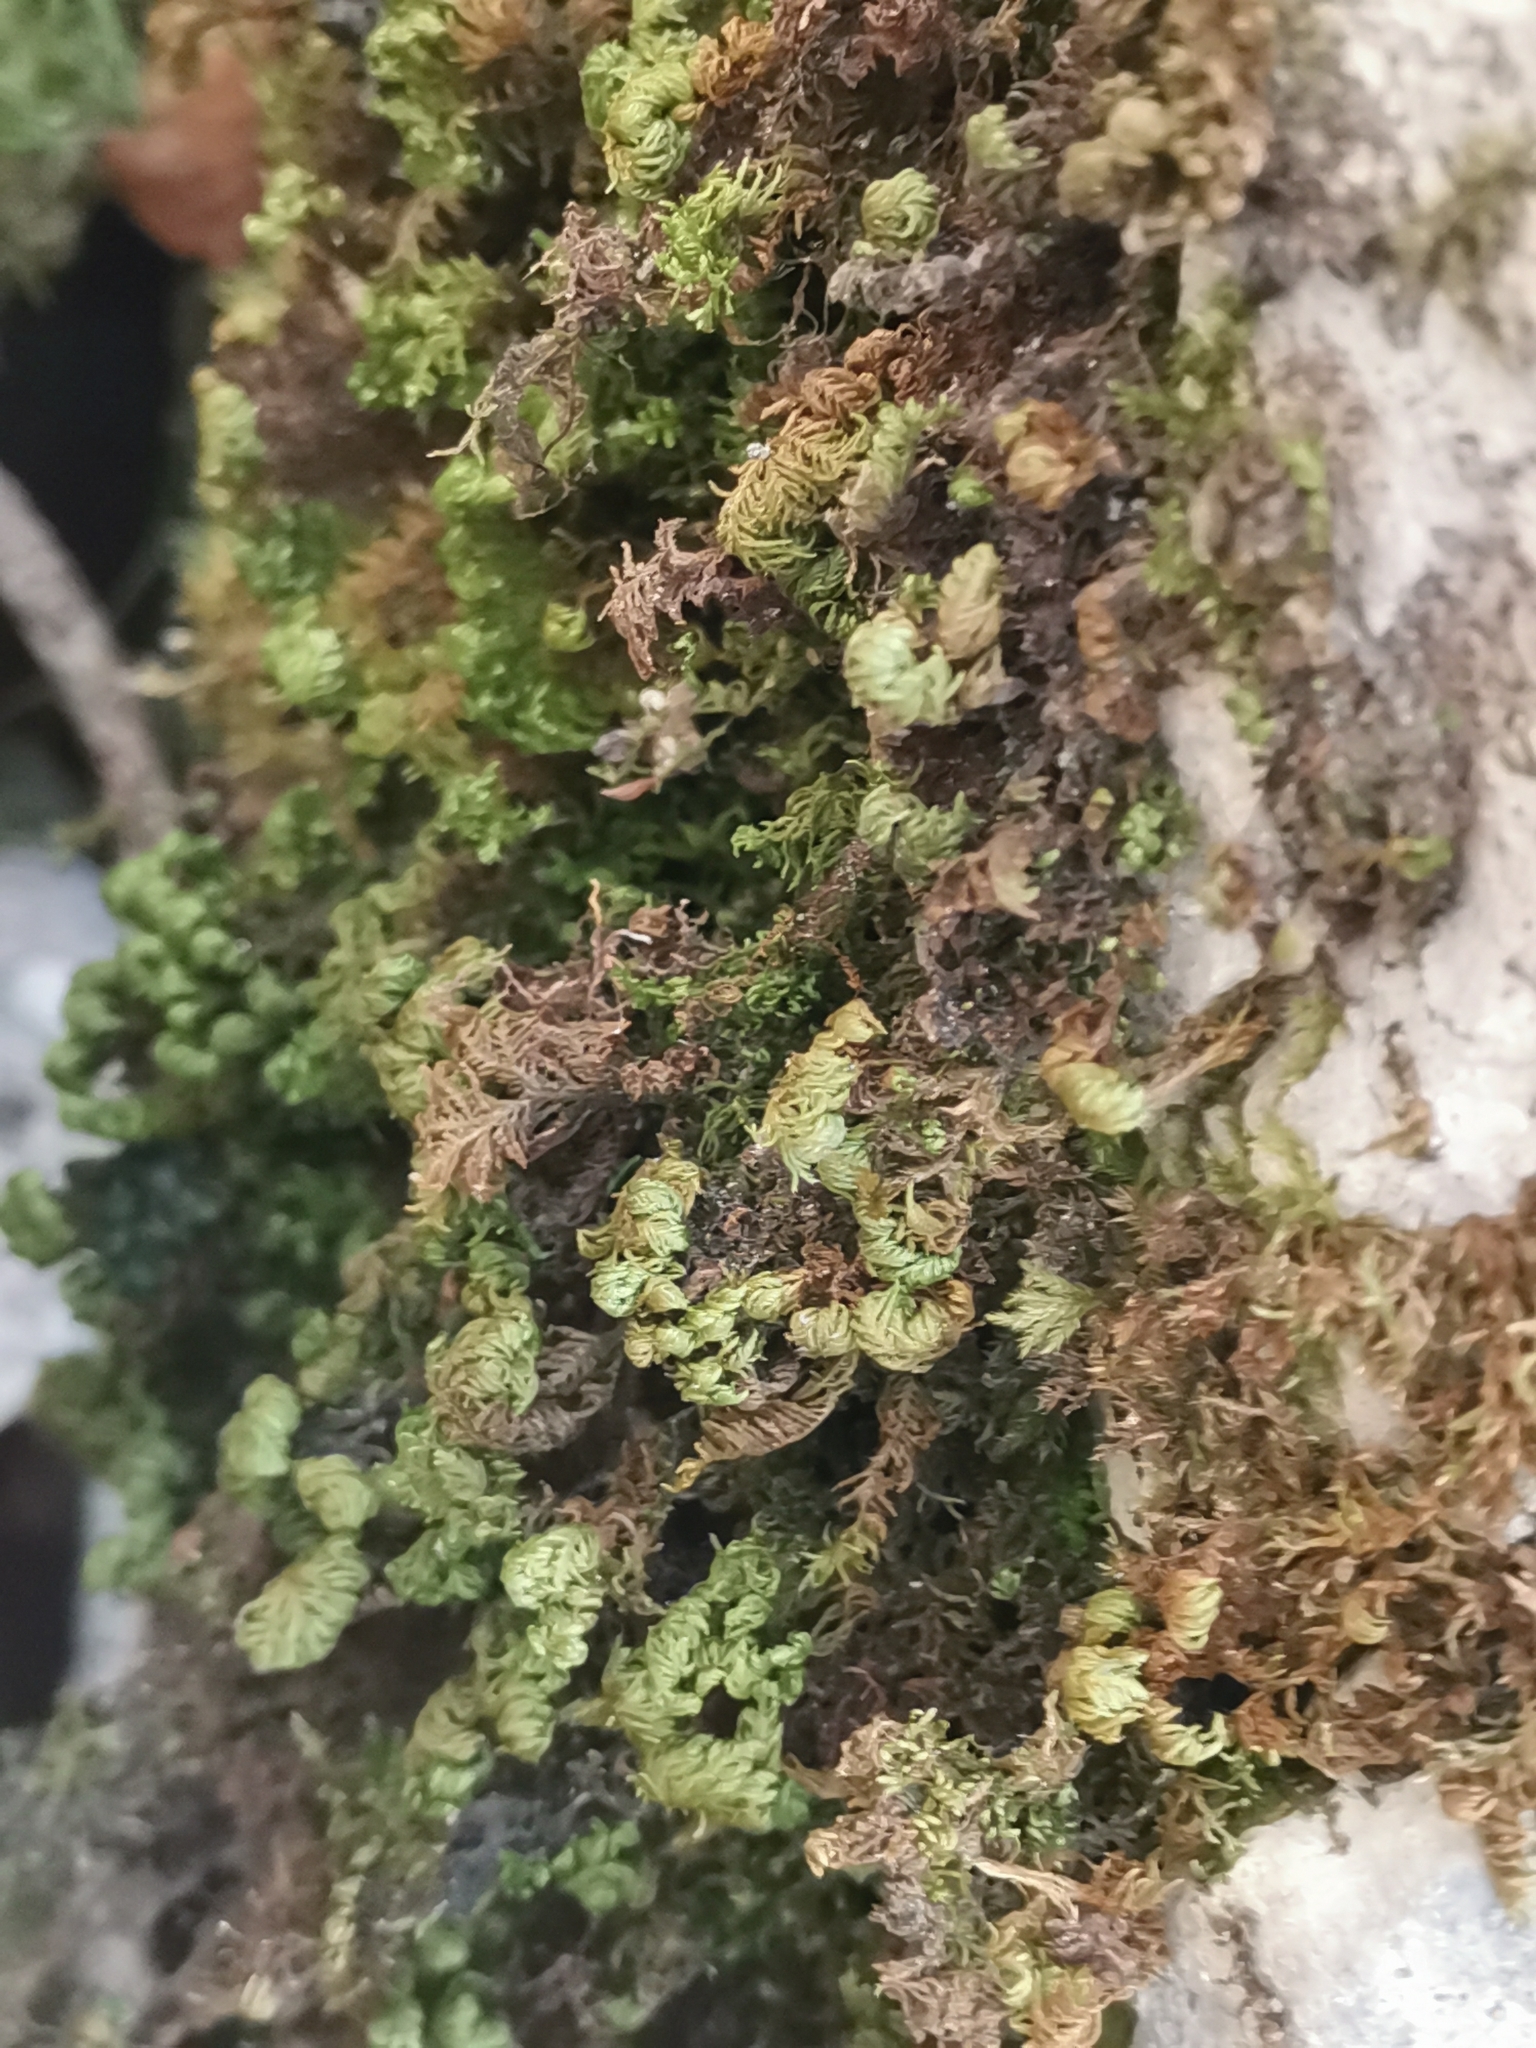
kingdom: Plantae
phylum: Bryophyta
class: Bryopsida
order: Hypnales
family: Neckeraceae
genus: Leptodon
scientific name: Leptodon smithii
